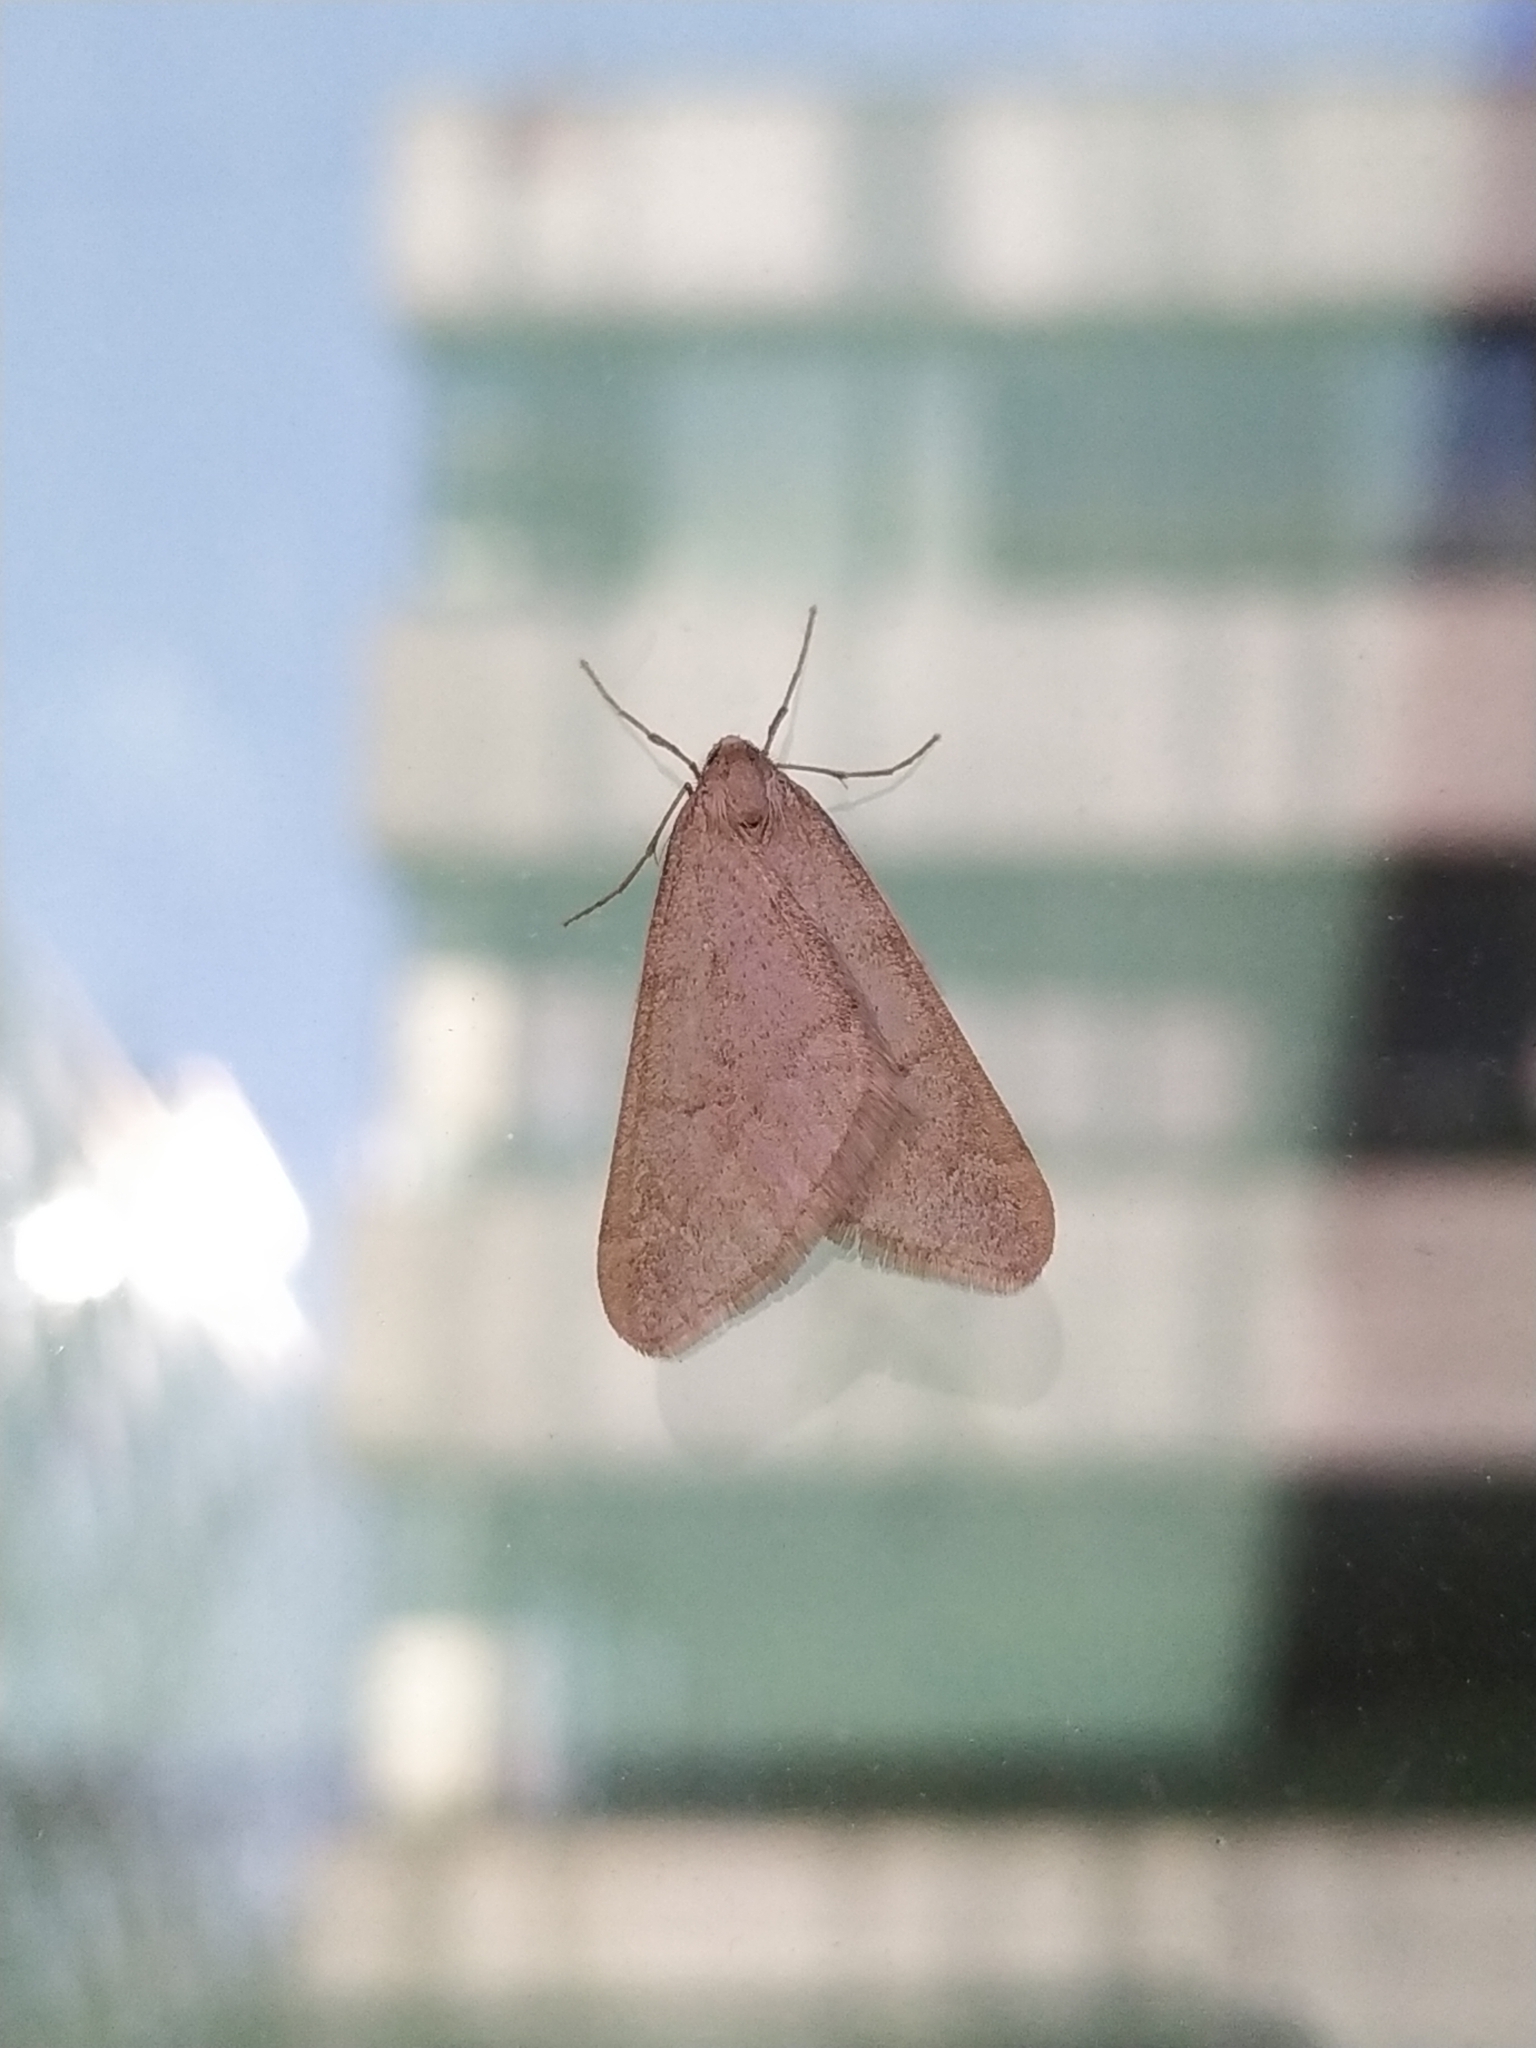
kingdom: Animalia
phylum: Arthropoda
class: Insecta
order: Lepidoptera
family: Geometridae
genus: Alsophila
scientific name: Alsophila aceraria
